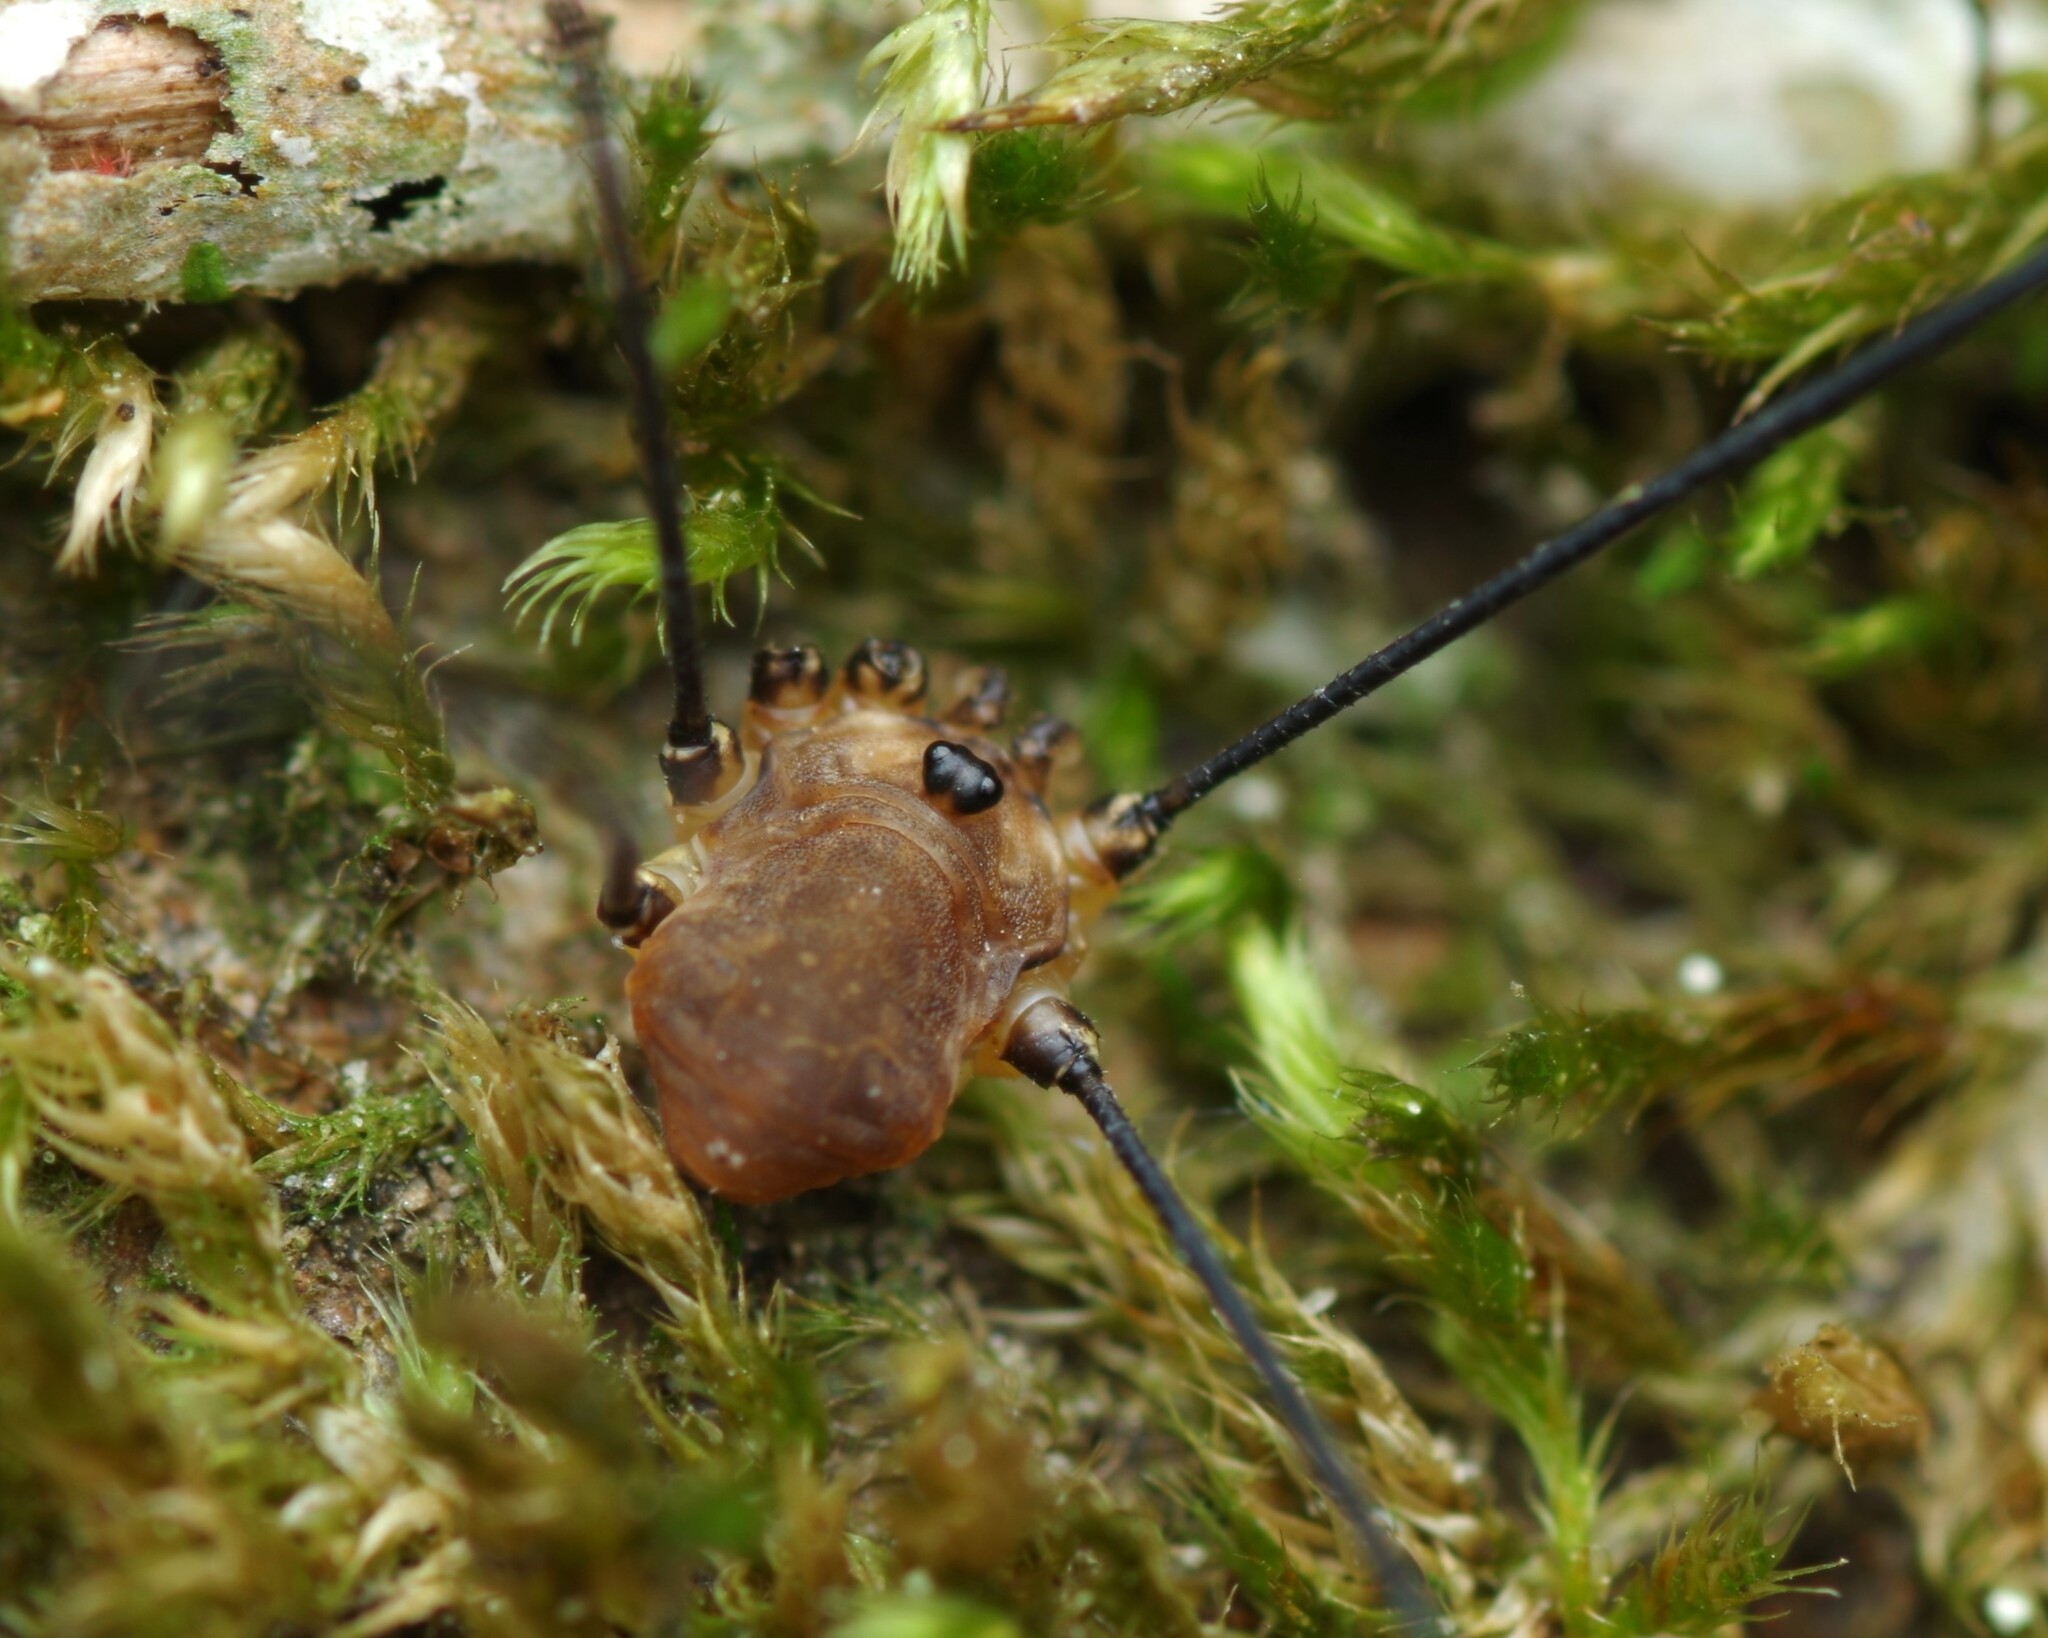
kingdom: Animalia
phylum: Arthropoda
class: Arachnida
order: Opiliones
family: Sclerosomatidae
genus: Leiobunum
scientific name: Leiobunum rotundum
